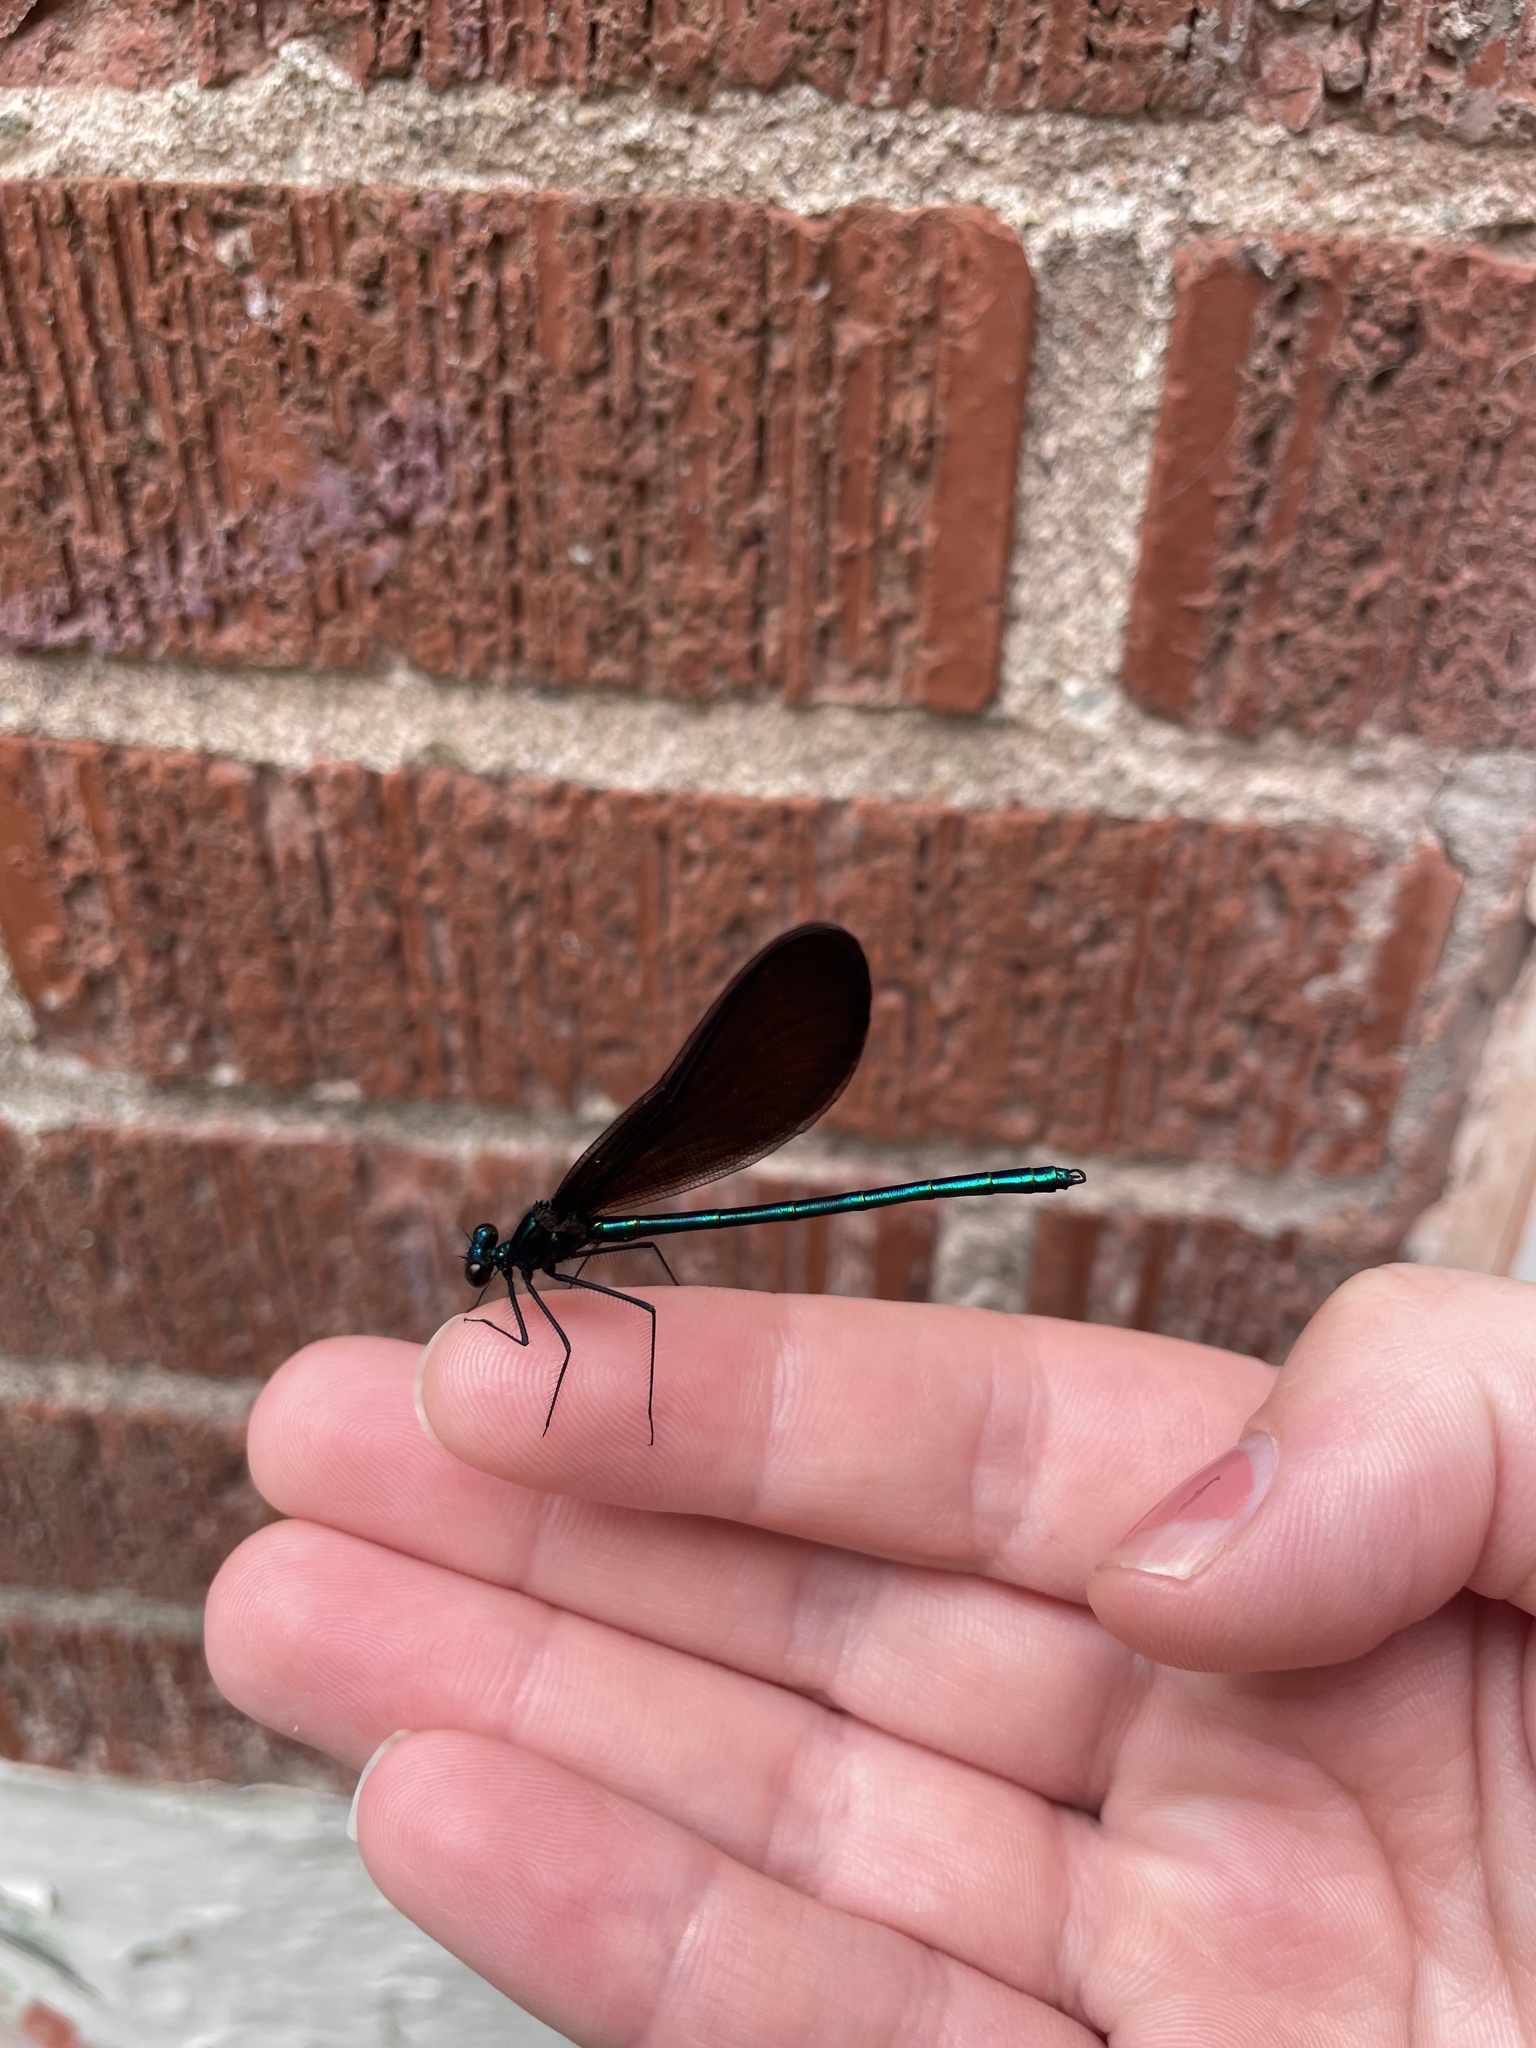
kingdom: Animalia
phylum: Arthropoda
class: Insecta
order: Odonata
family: Calopterygidae
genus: Calopteryx
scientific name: Calopteryx maculata
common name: Ebony jewelwing
